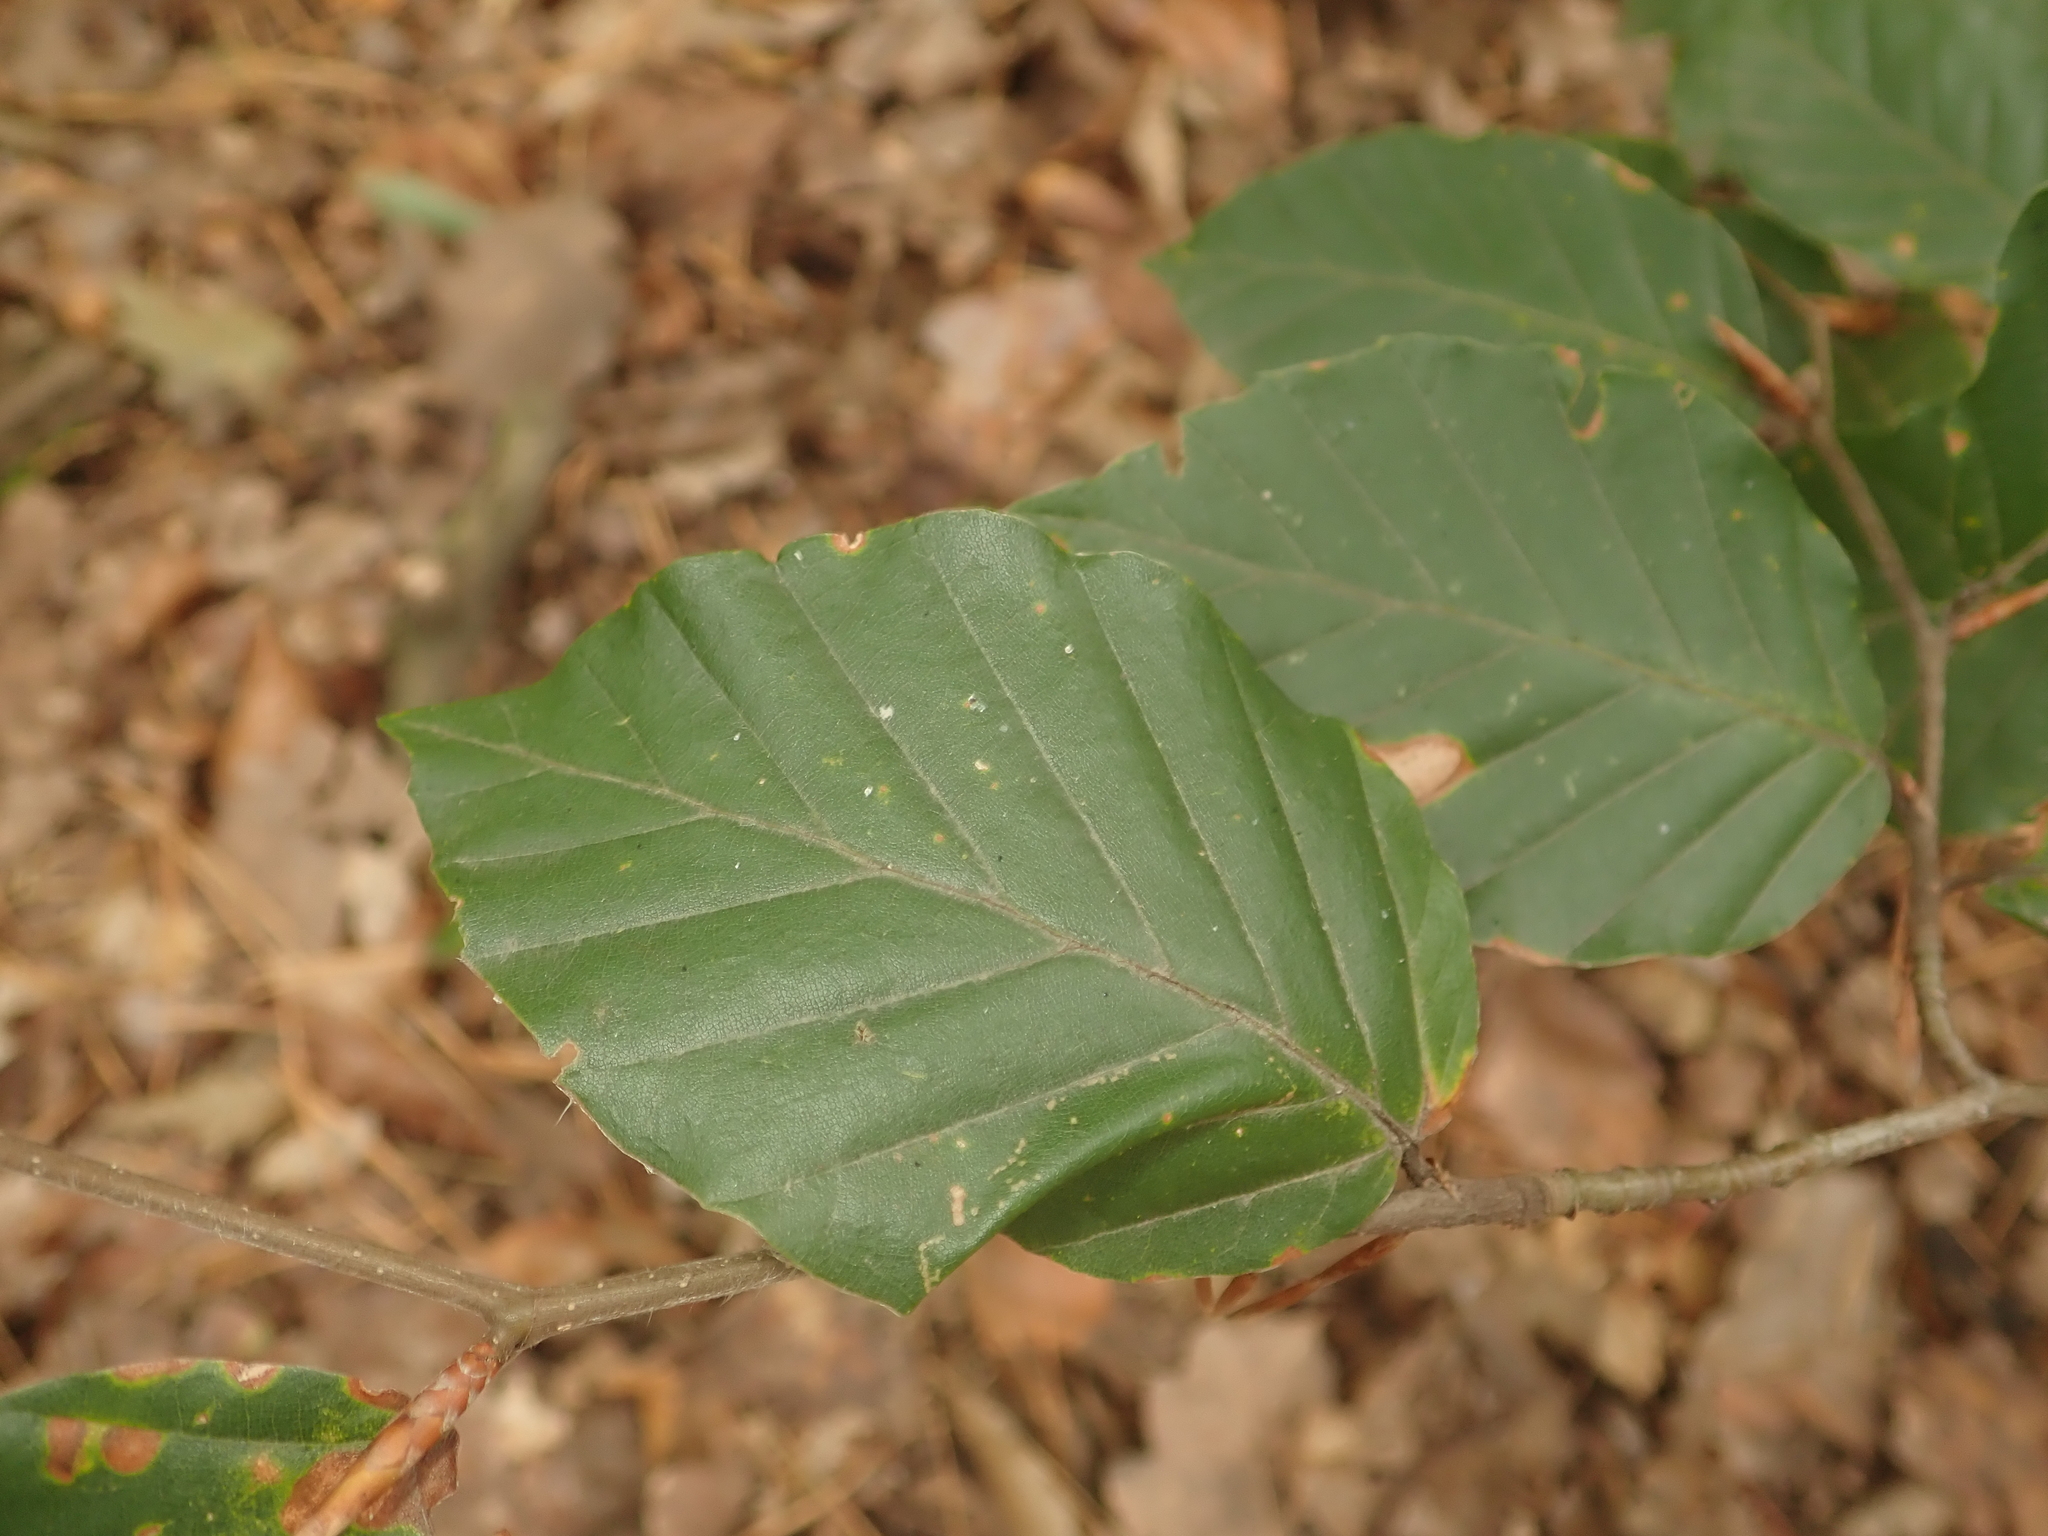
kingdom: Plantae
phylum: Tracheophyta
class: Magnoliopsida
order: Fagales
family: Fagaceae
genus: Fagus
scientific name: Fagus sylvatica
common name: Beech
